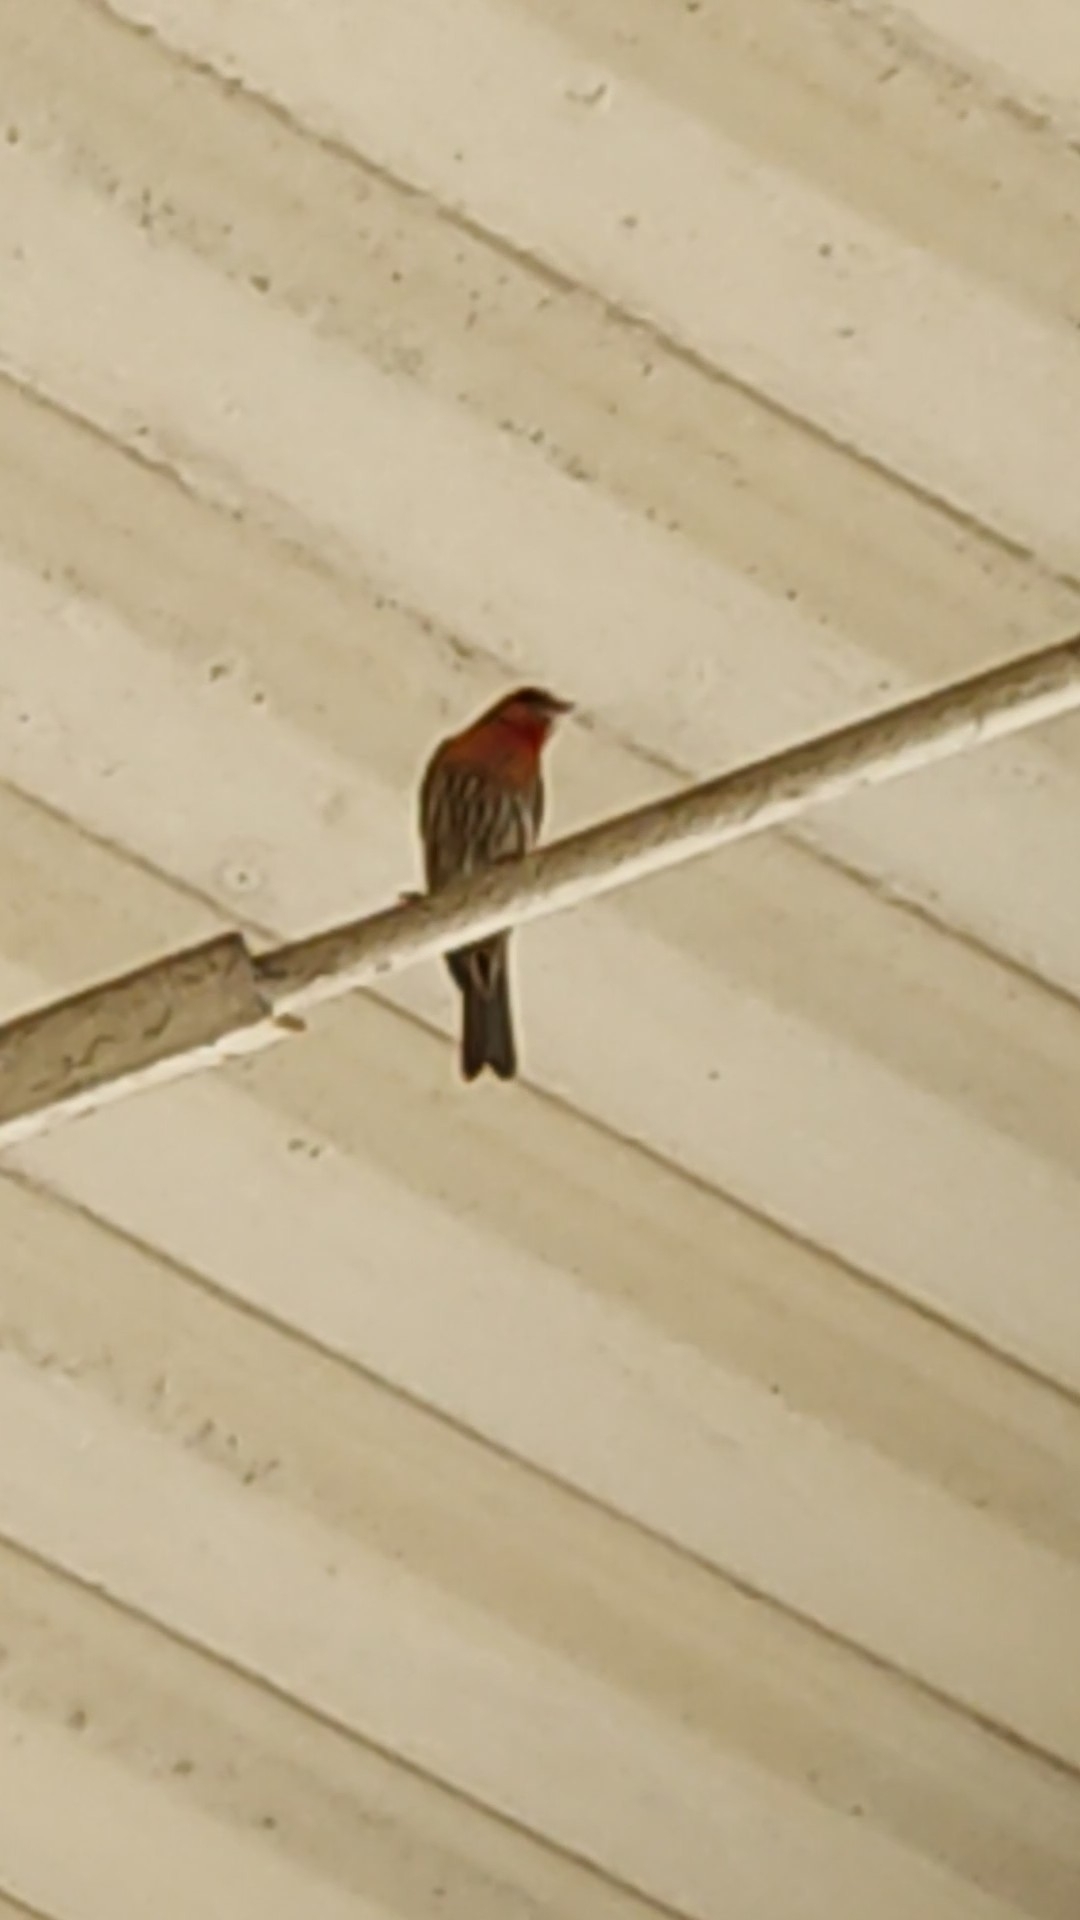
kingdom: Animalia
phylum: Chordata
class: Aves
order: Passeriformes
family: Fringillidae
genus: Haemorhous
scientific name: Haemorhous mexicanus
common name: House finch
